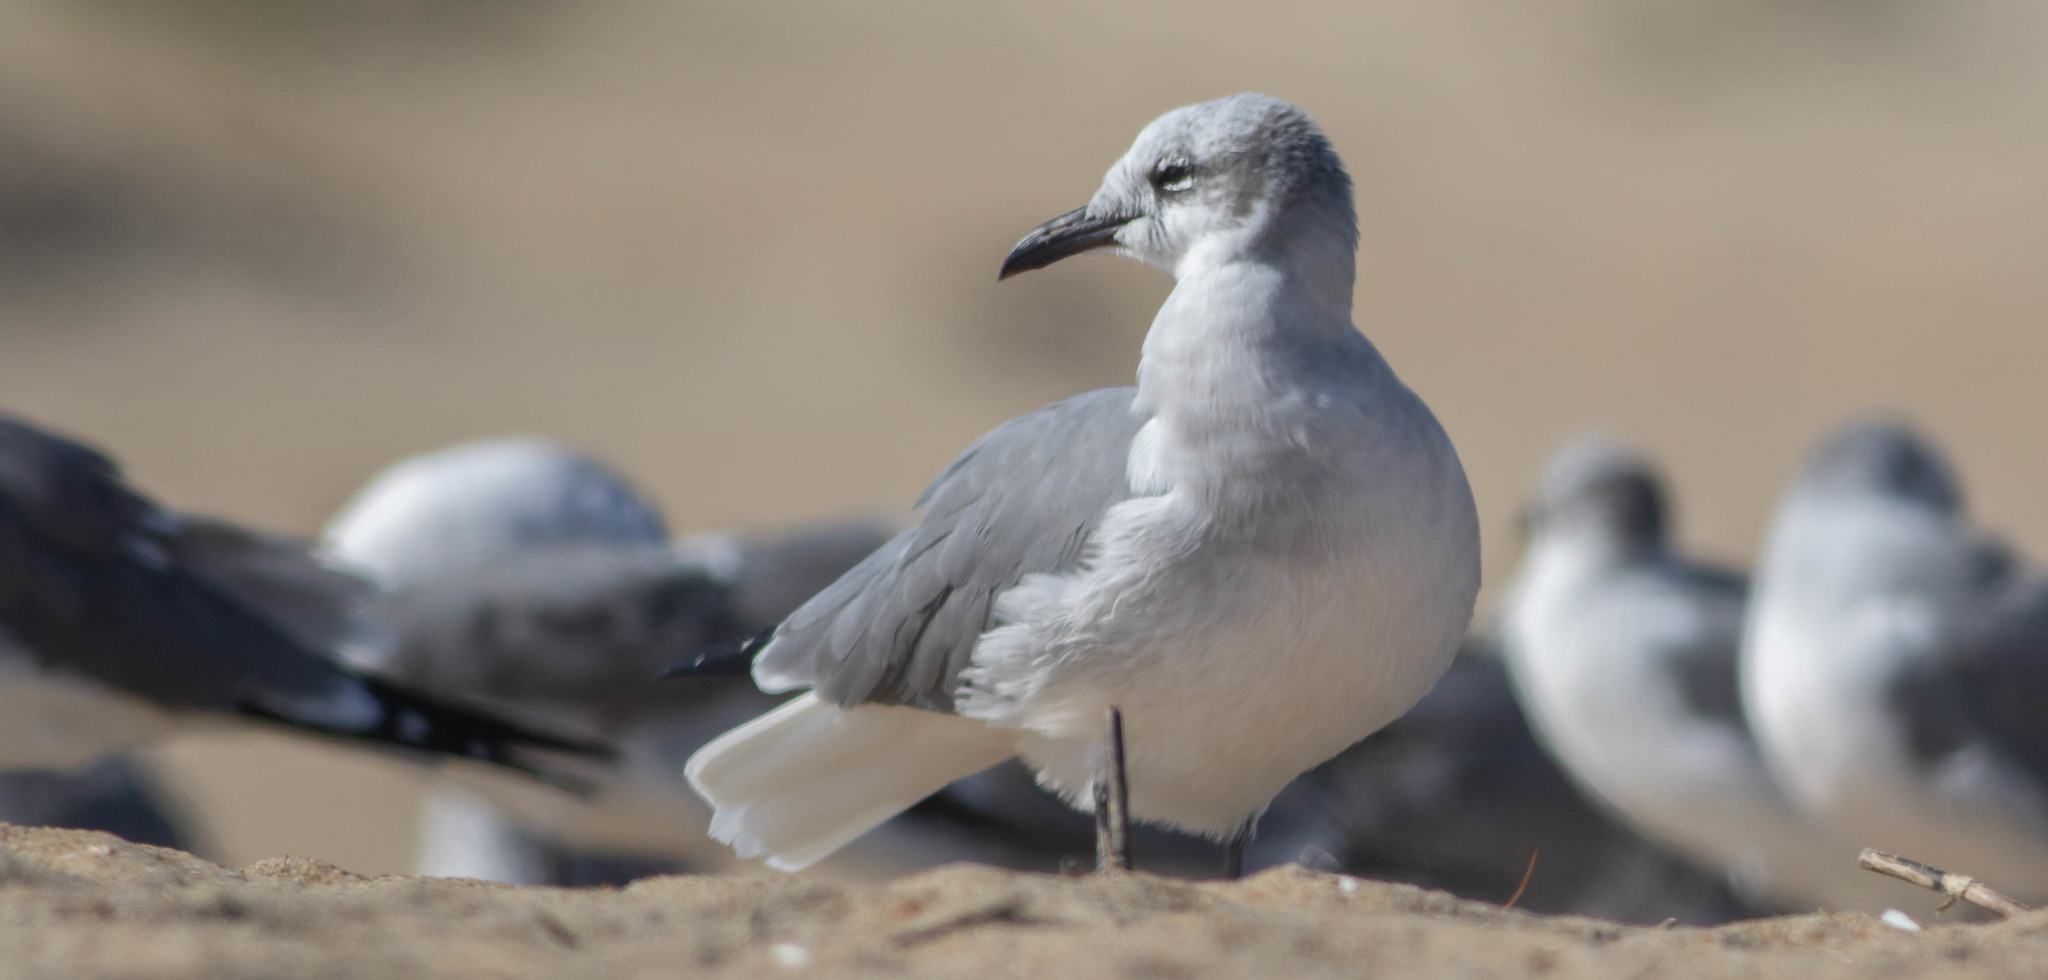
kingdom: Animalia
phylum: Chordata
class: Aves
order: Charadriiformes
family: Laridae
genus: Leucophaeus
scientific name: Leucophaeus atricilla
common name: Laughing gull
